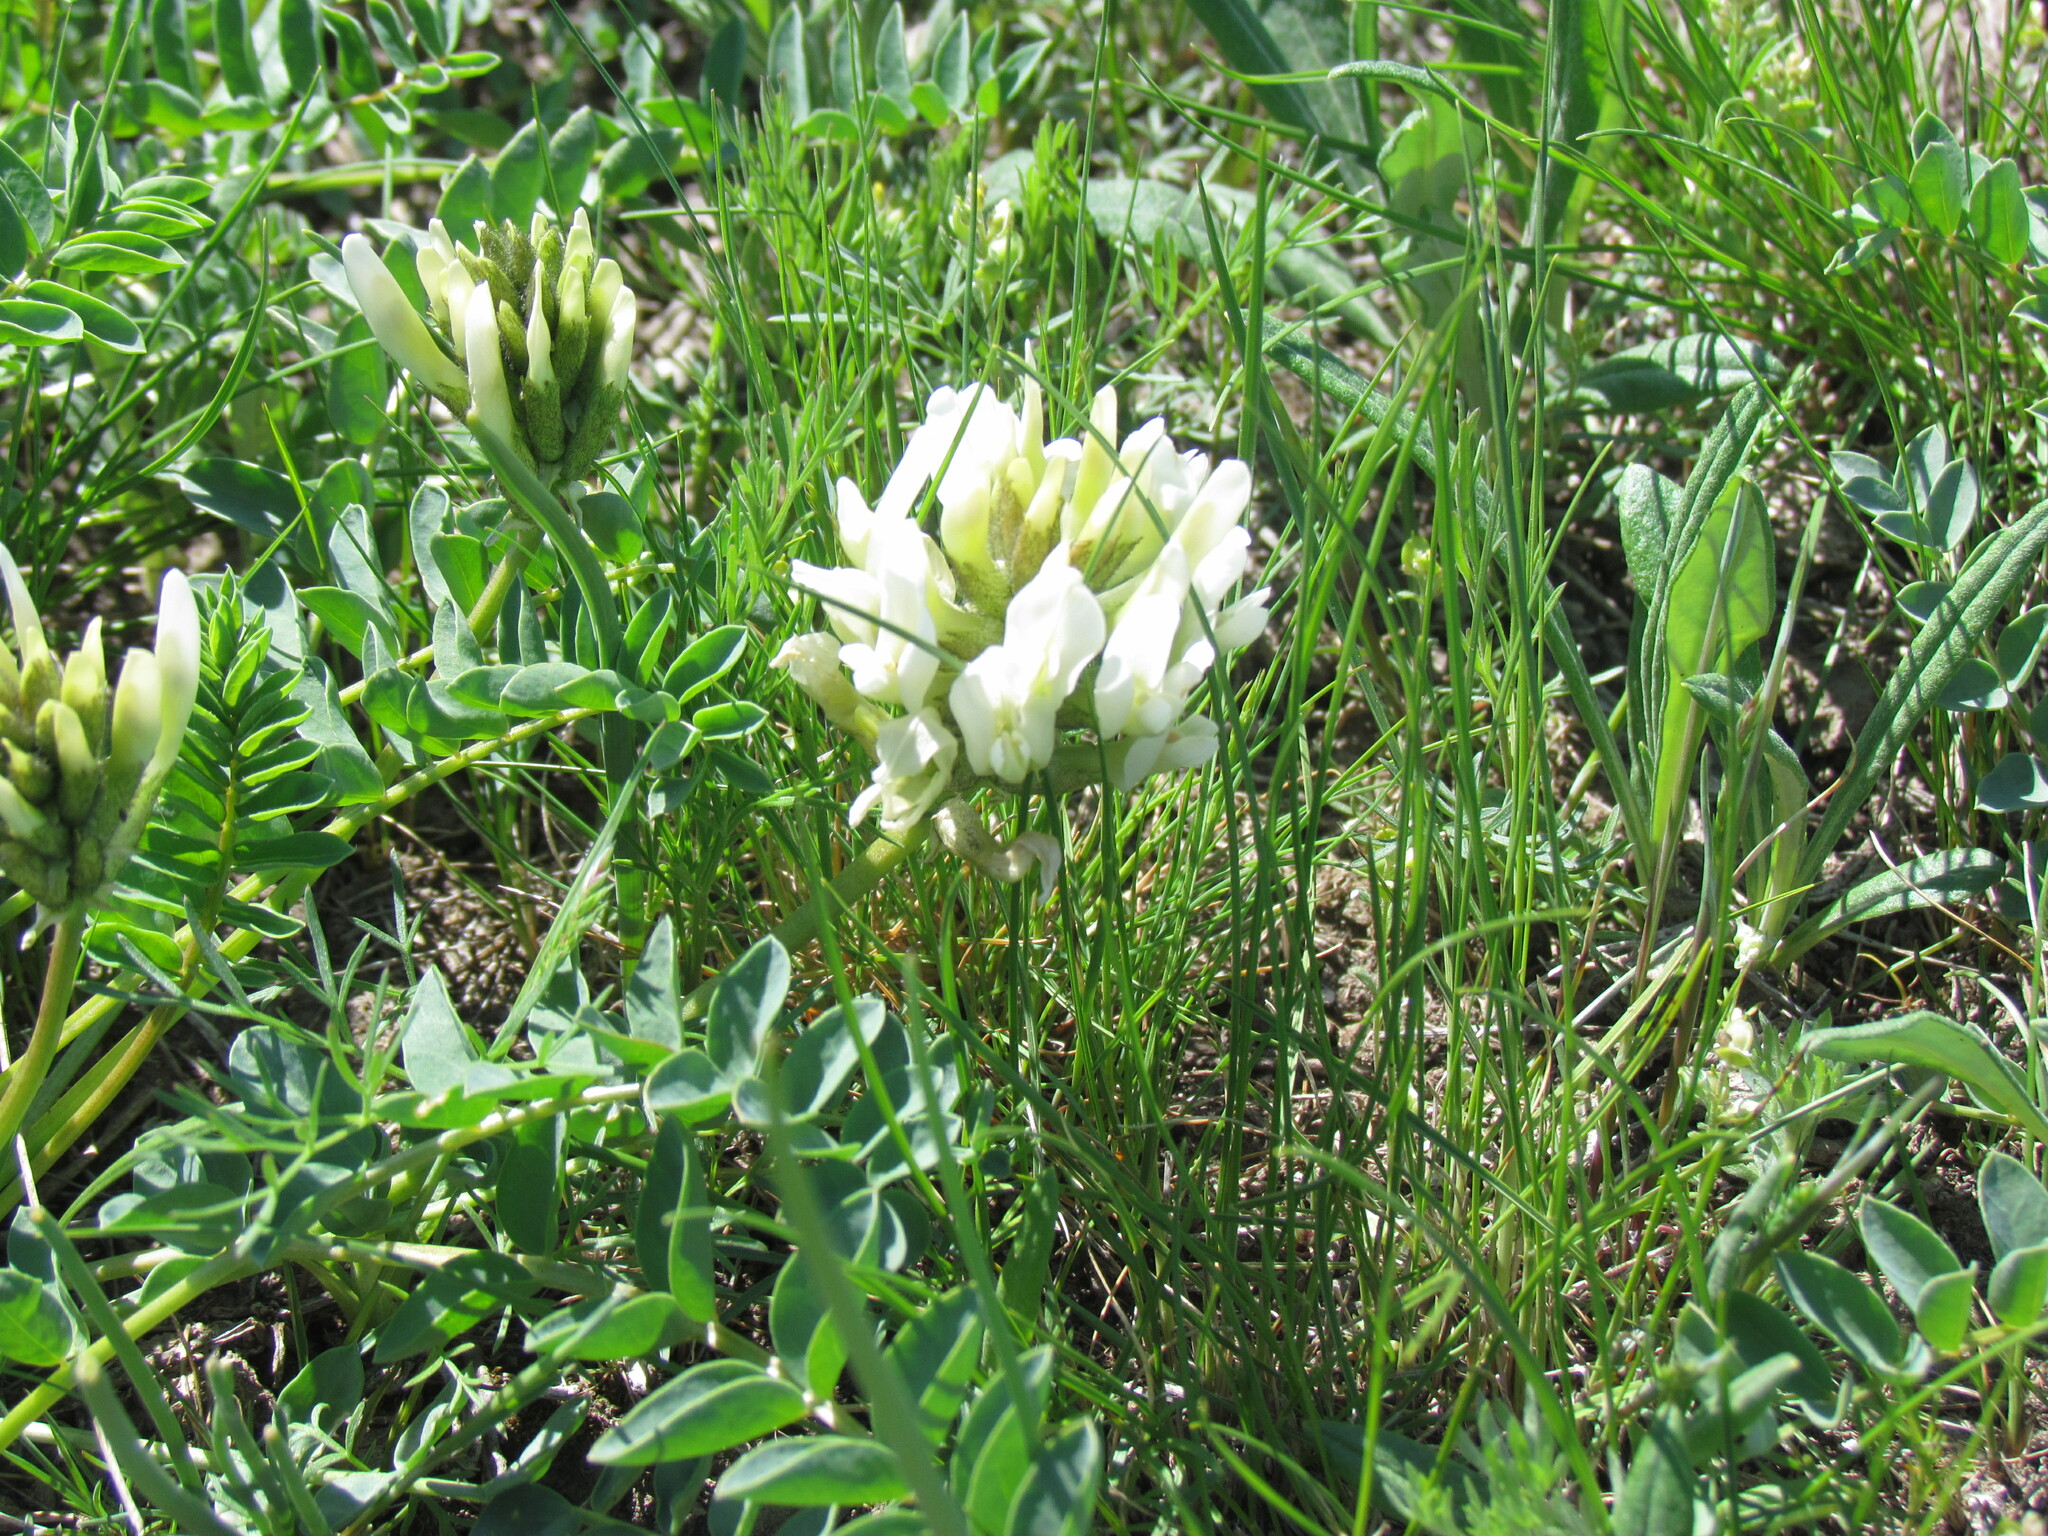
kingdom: Plantae
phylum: Tracheophyta
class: Magnoliopsida
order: Fabales
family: Fabaceae
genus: Astragalus
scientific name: Astragalus physocarpus
